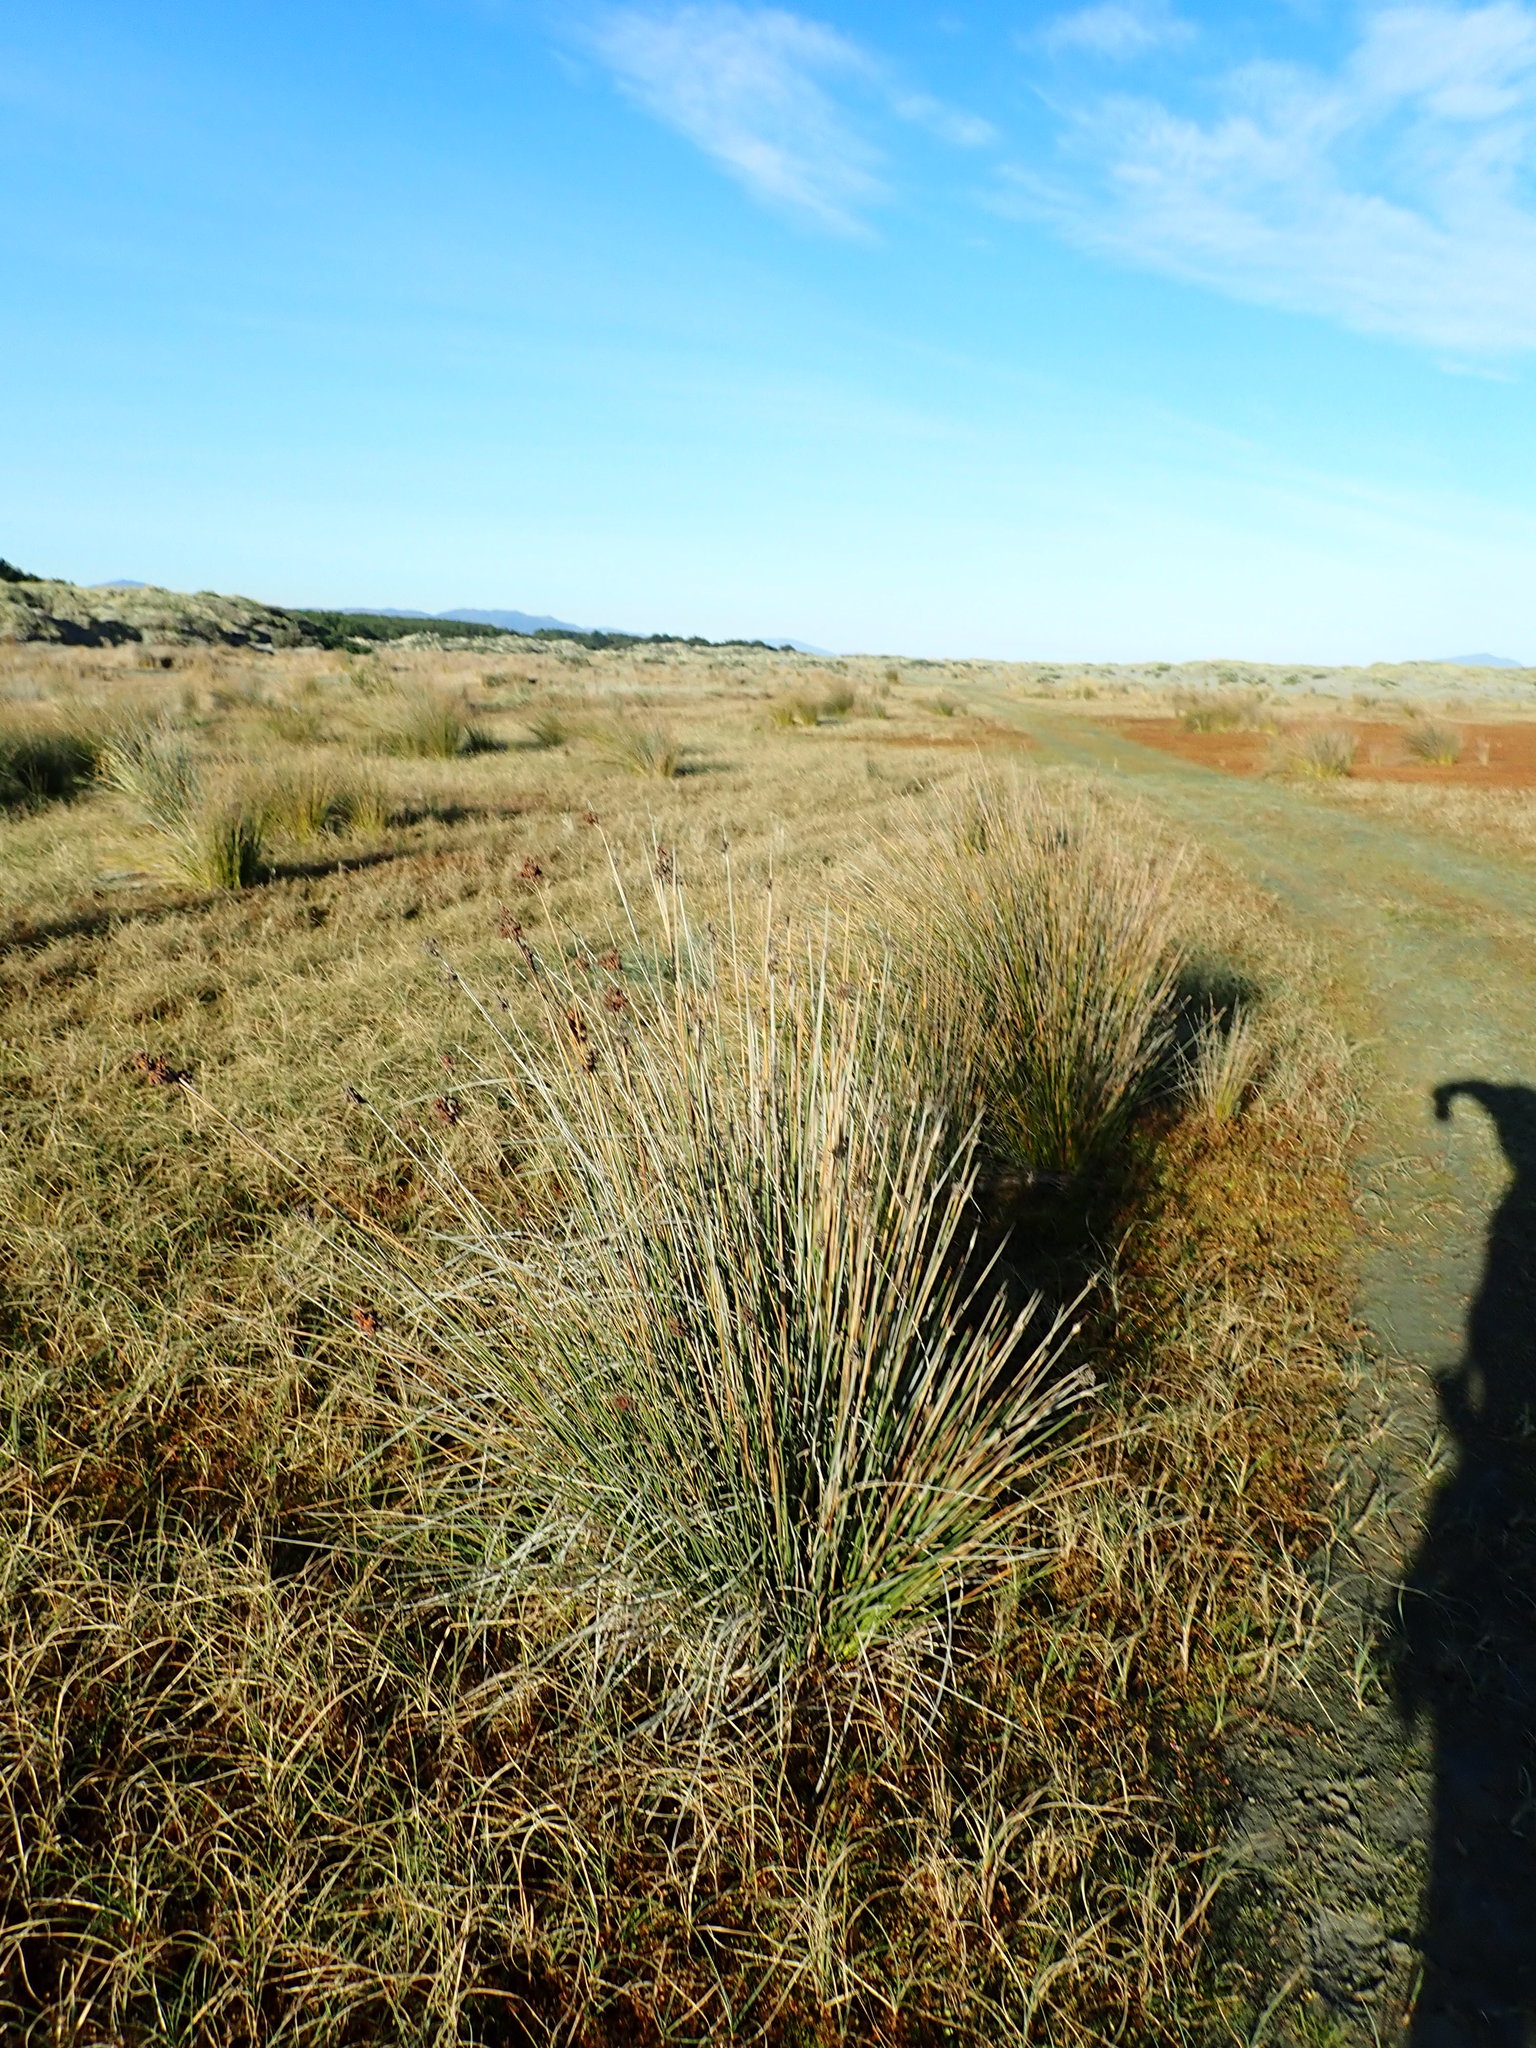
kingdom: Plantae
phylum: Tracheophyta
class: Liliopsida
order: Poales
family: Juncaceae
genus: Juncus
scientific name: Juncus acutus
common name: Sharp rush
